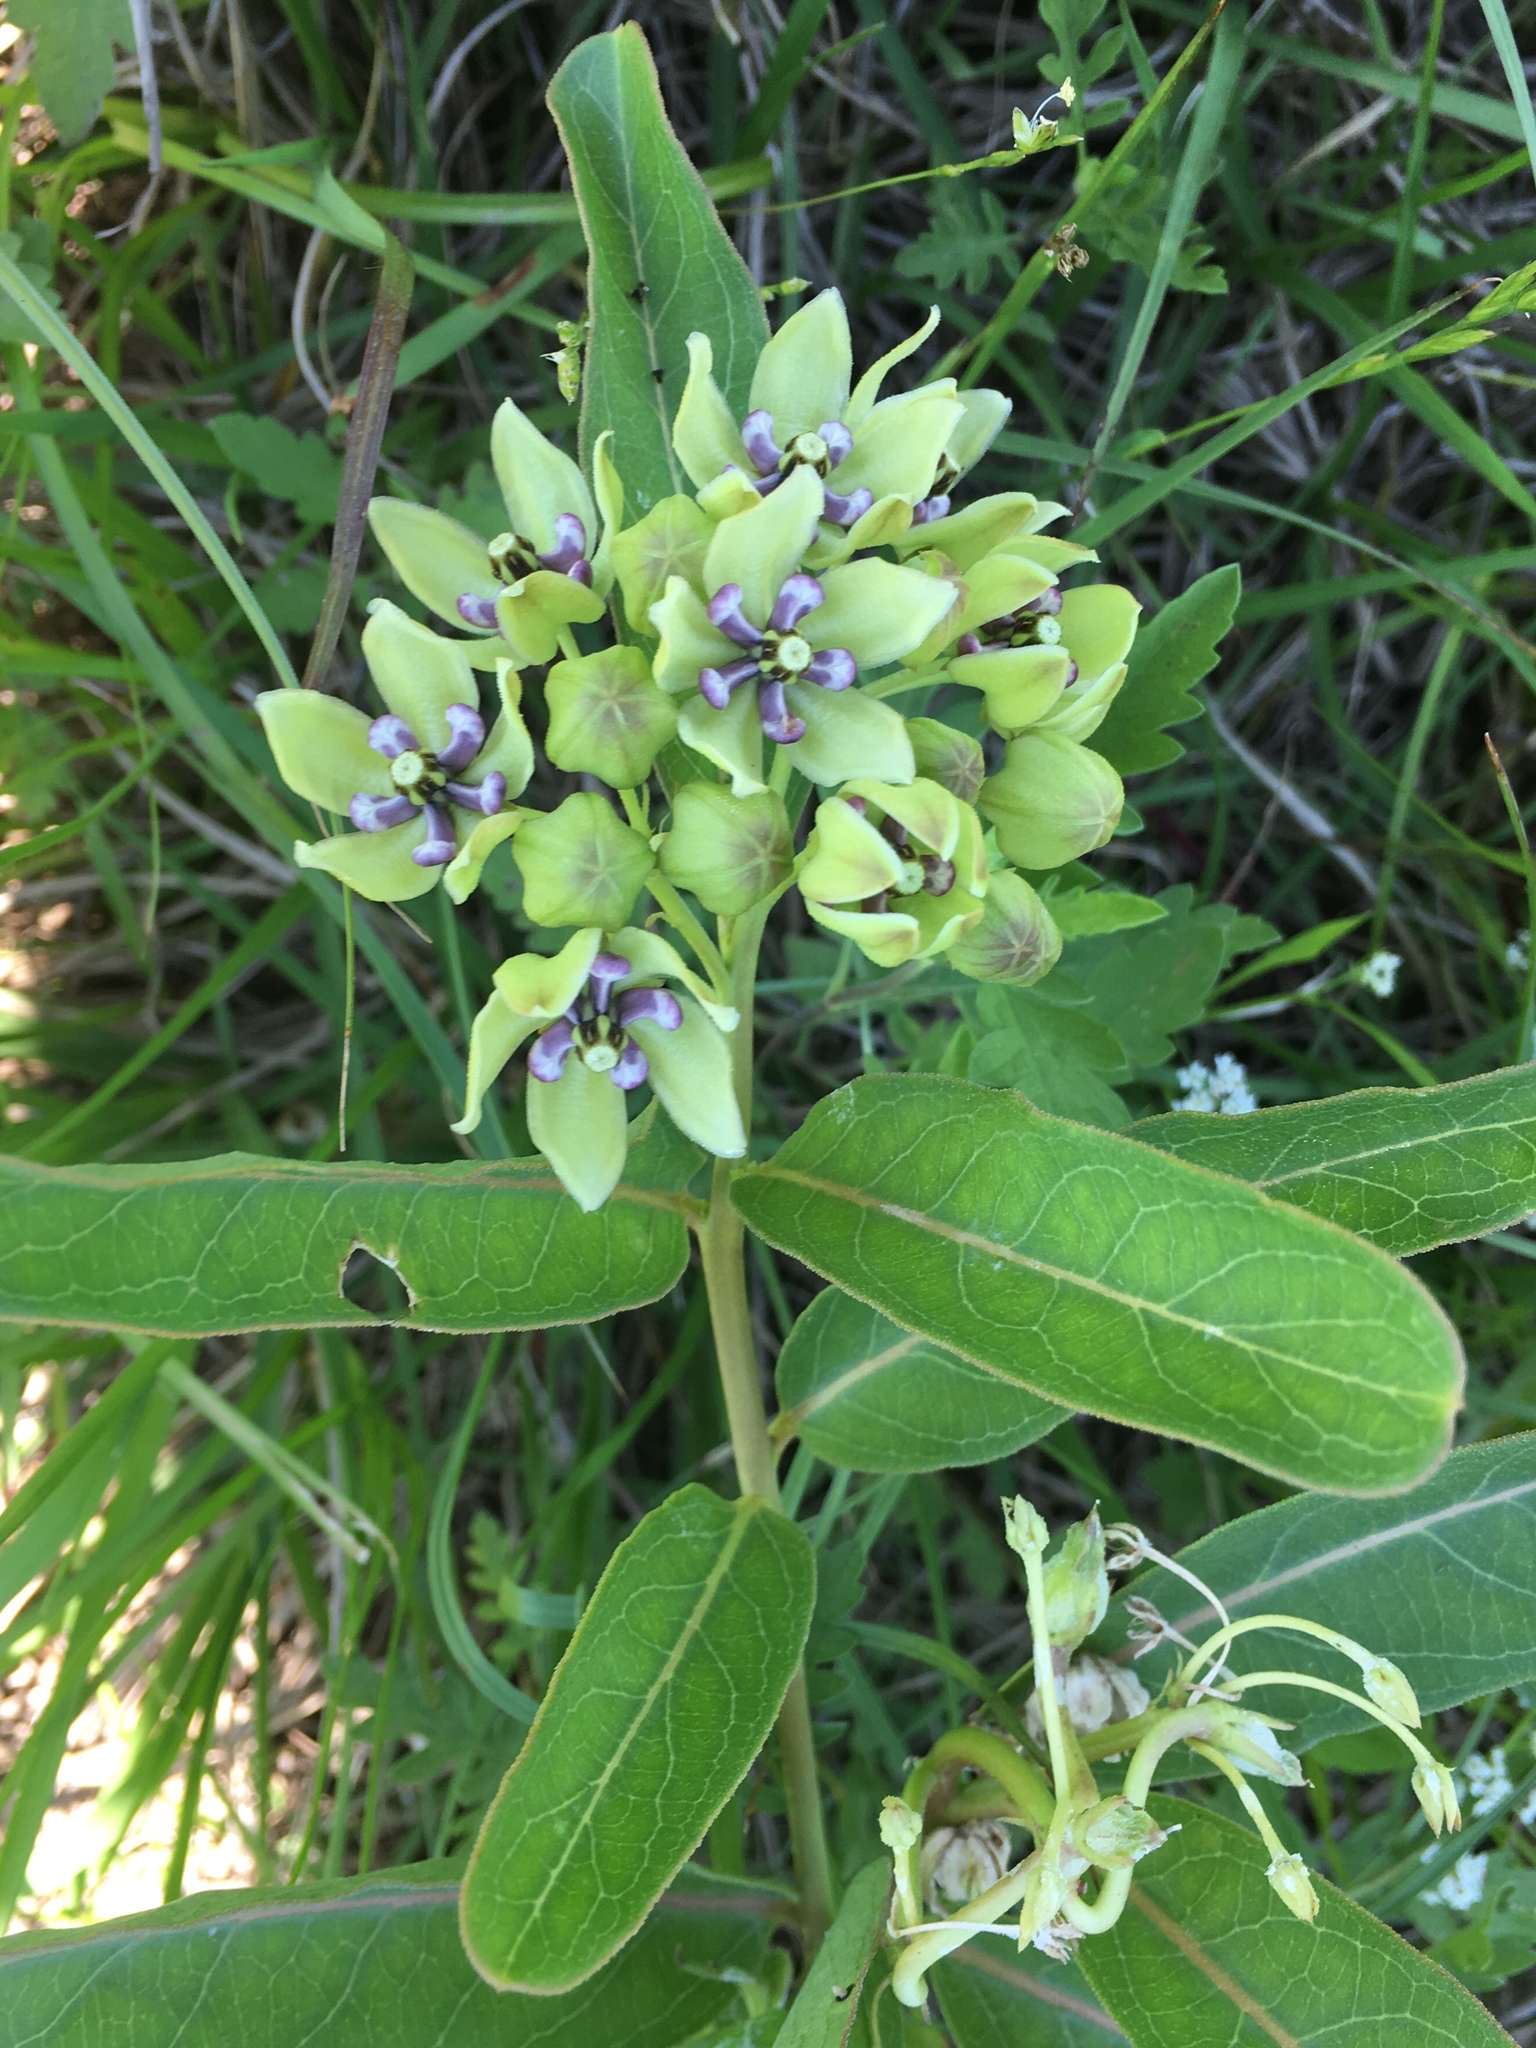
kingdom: Plantae
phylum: Tracheophyta
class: Magnoliopsida
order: Gentianales
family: Apocynaceae
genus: Asclepias
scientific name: Asclepias viridis
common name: Antelope-horns
